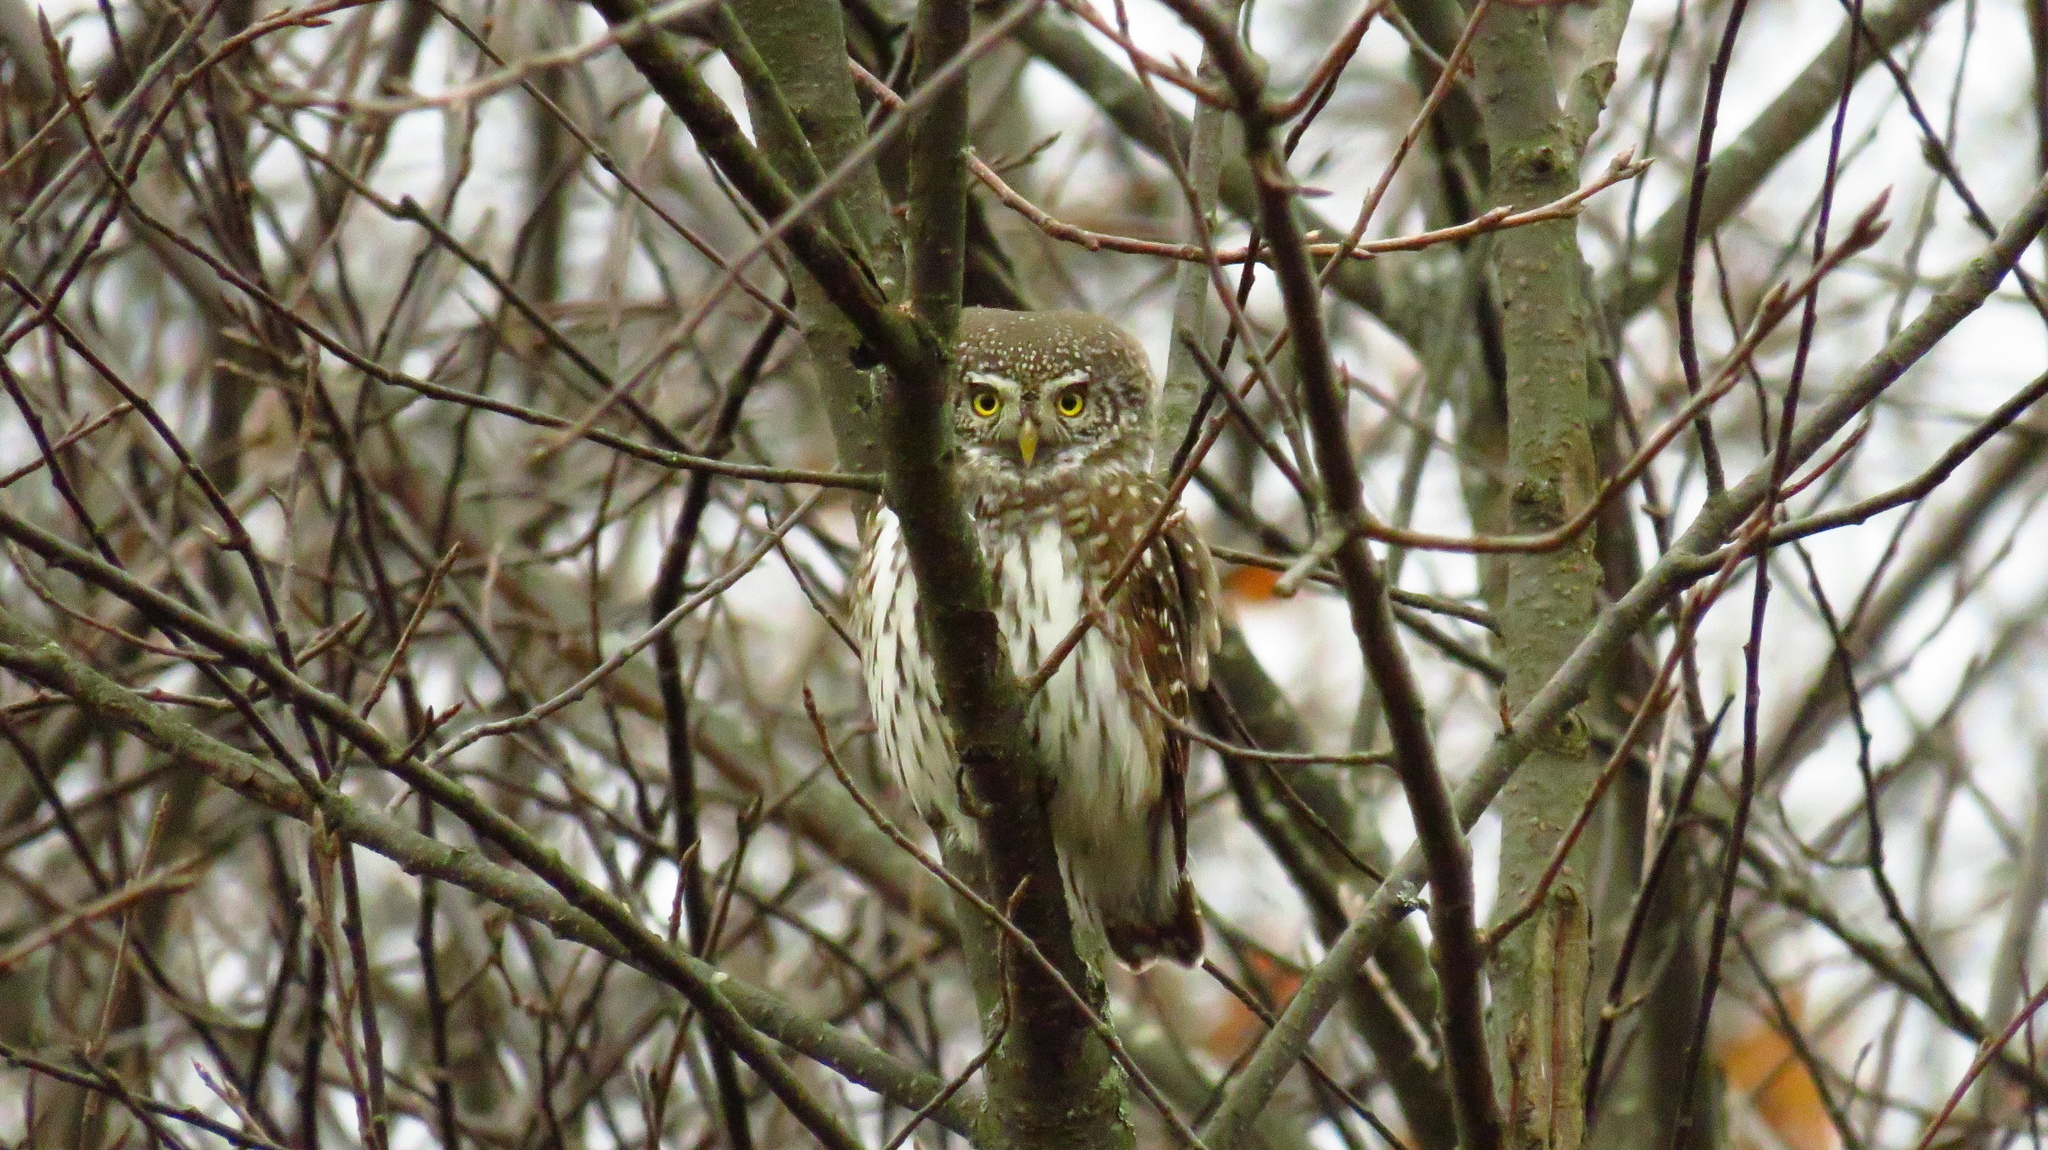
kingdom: Animalia
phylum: Chordata
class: Aves
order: Strigiformes
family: Strigidae
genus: Glaucidium
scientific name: Glaucidium passerinum
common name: Eurasian pygmy owl
